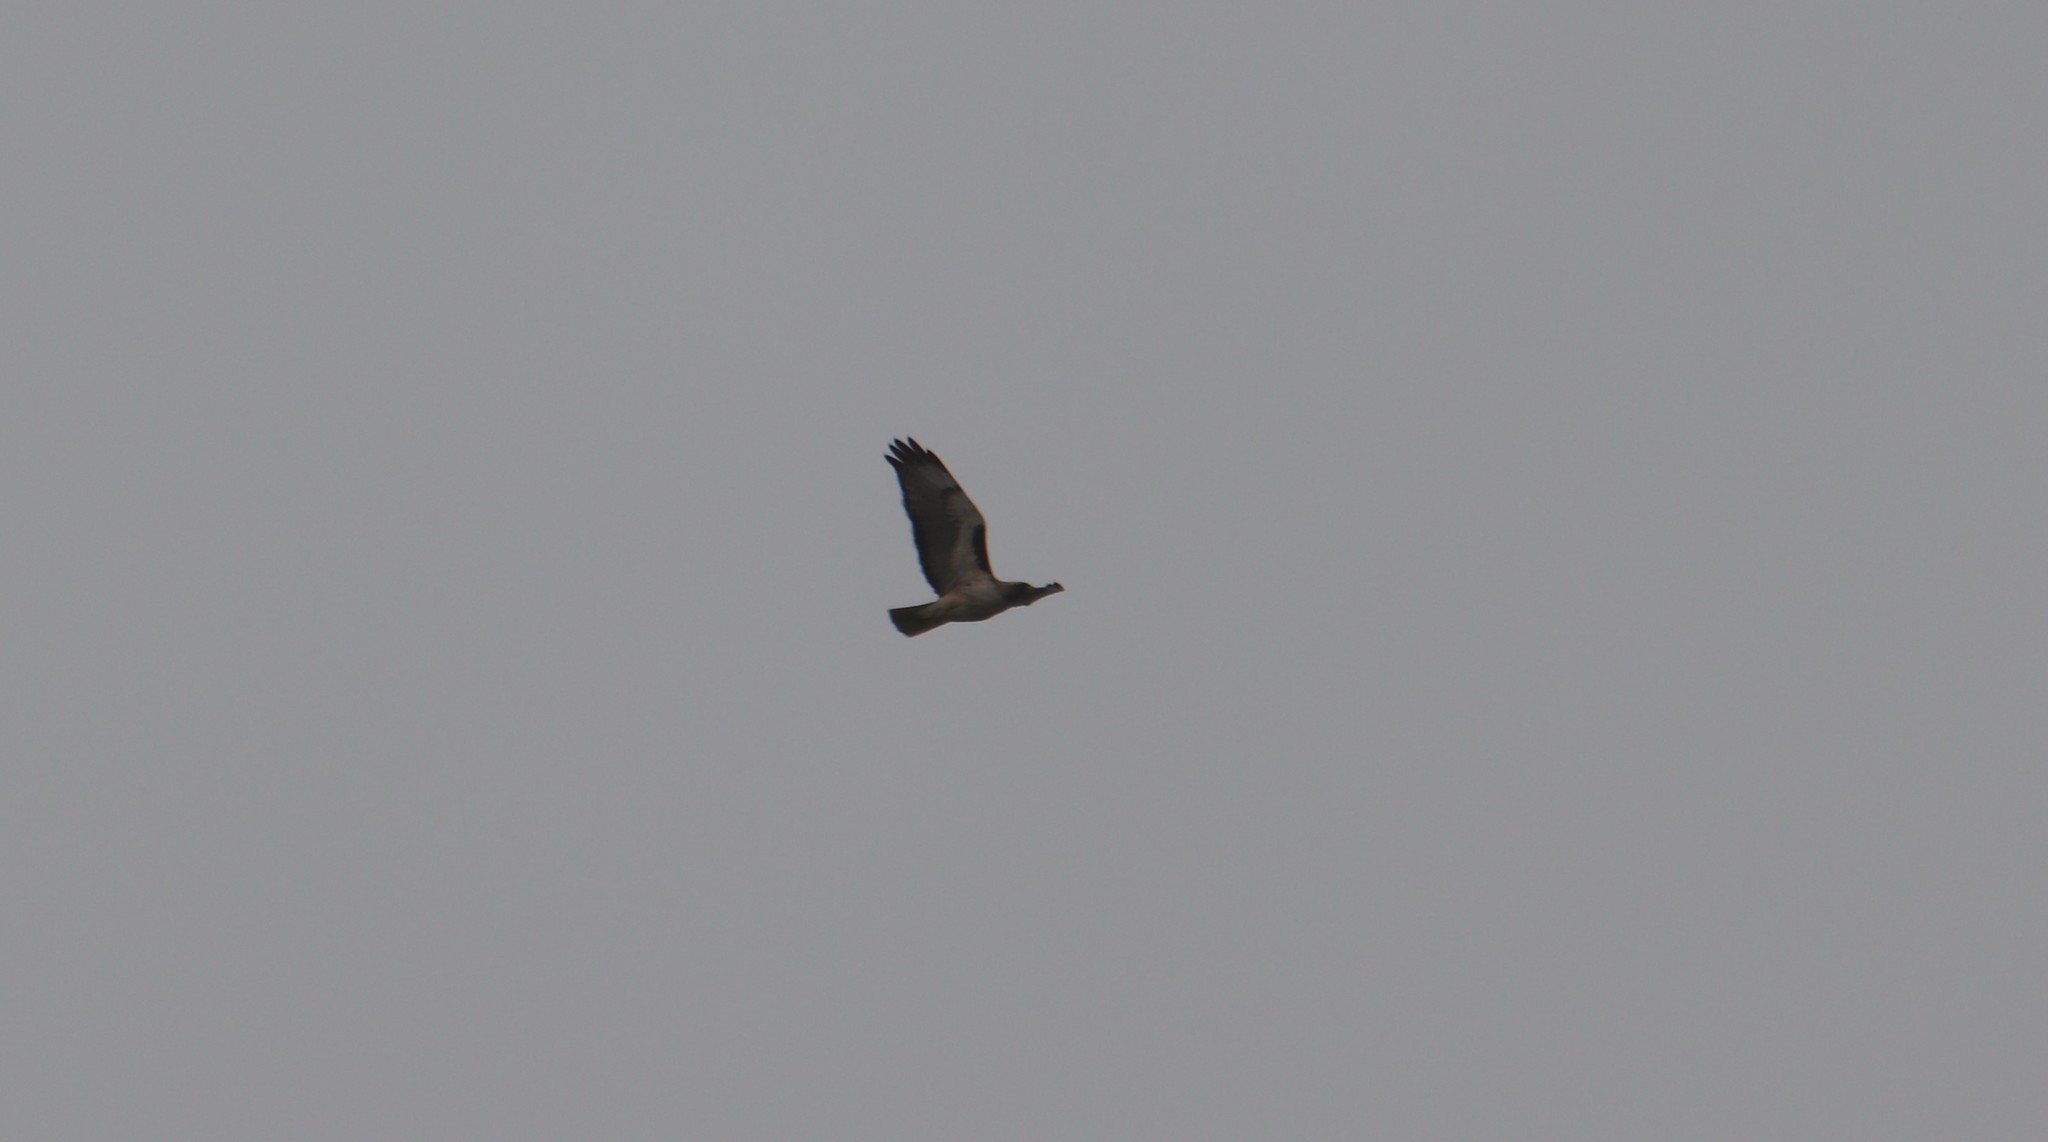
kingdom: Animalia
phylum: Chordata
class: Aves
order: Accipitriformes
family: Accipitridae
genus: Buteo
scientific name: Buteo jamaicensis
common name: Red-tailed hawk
